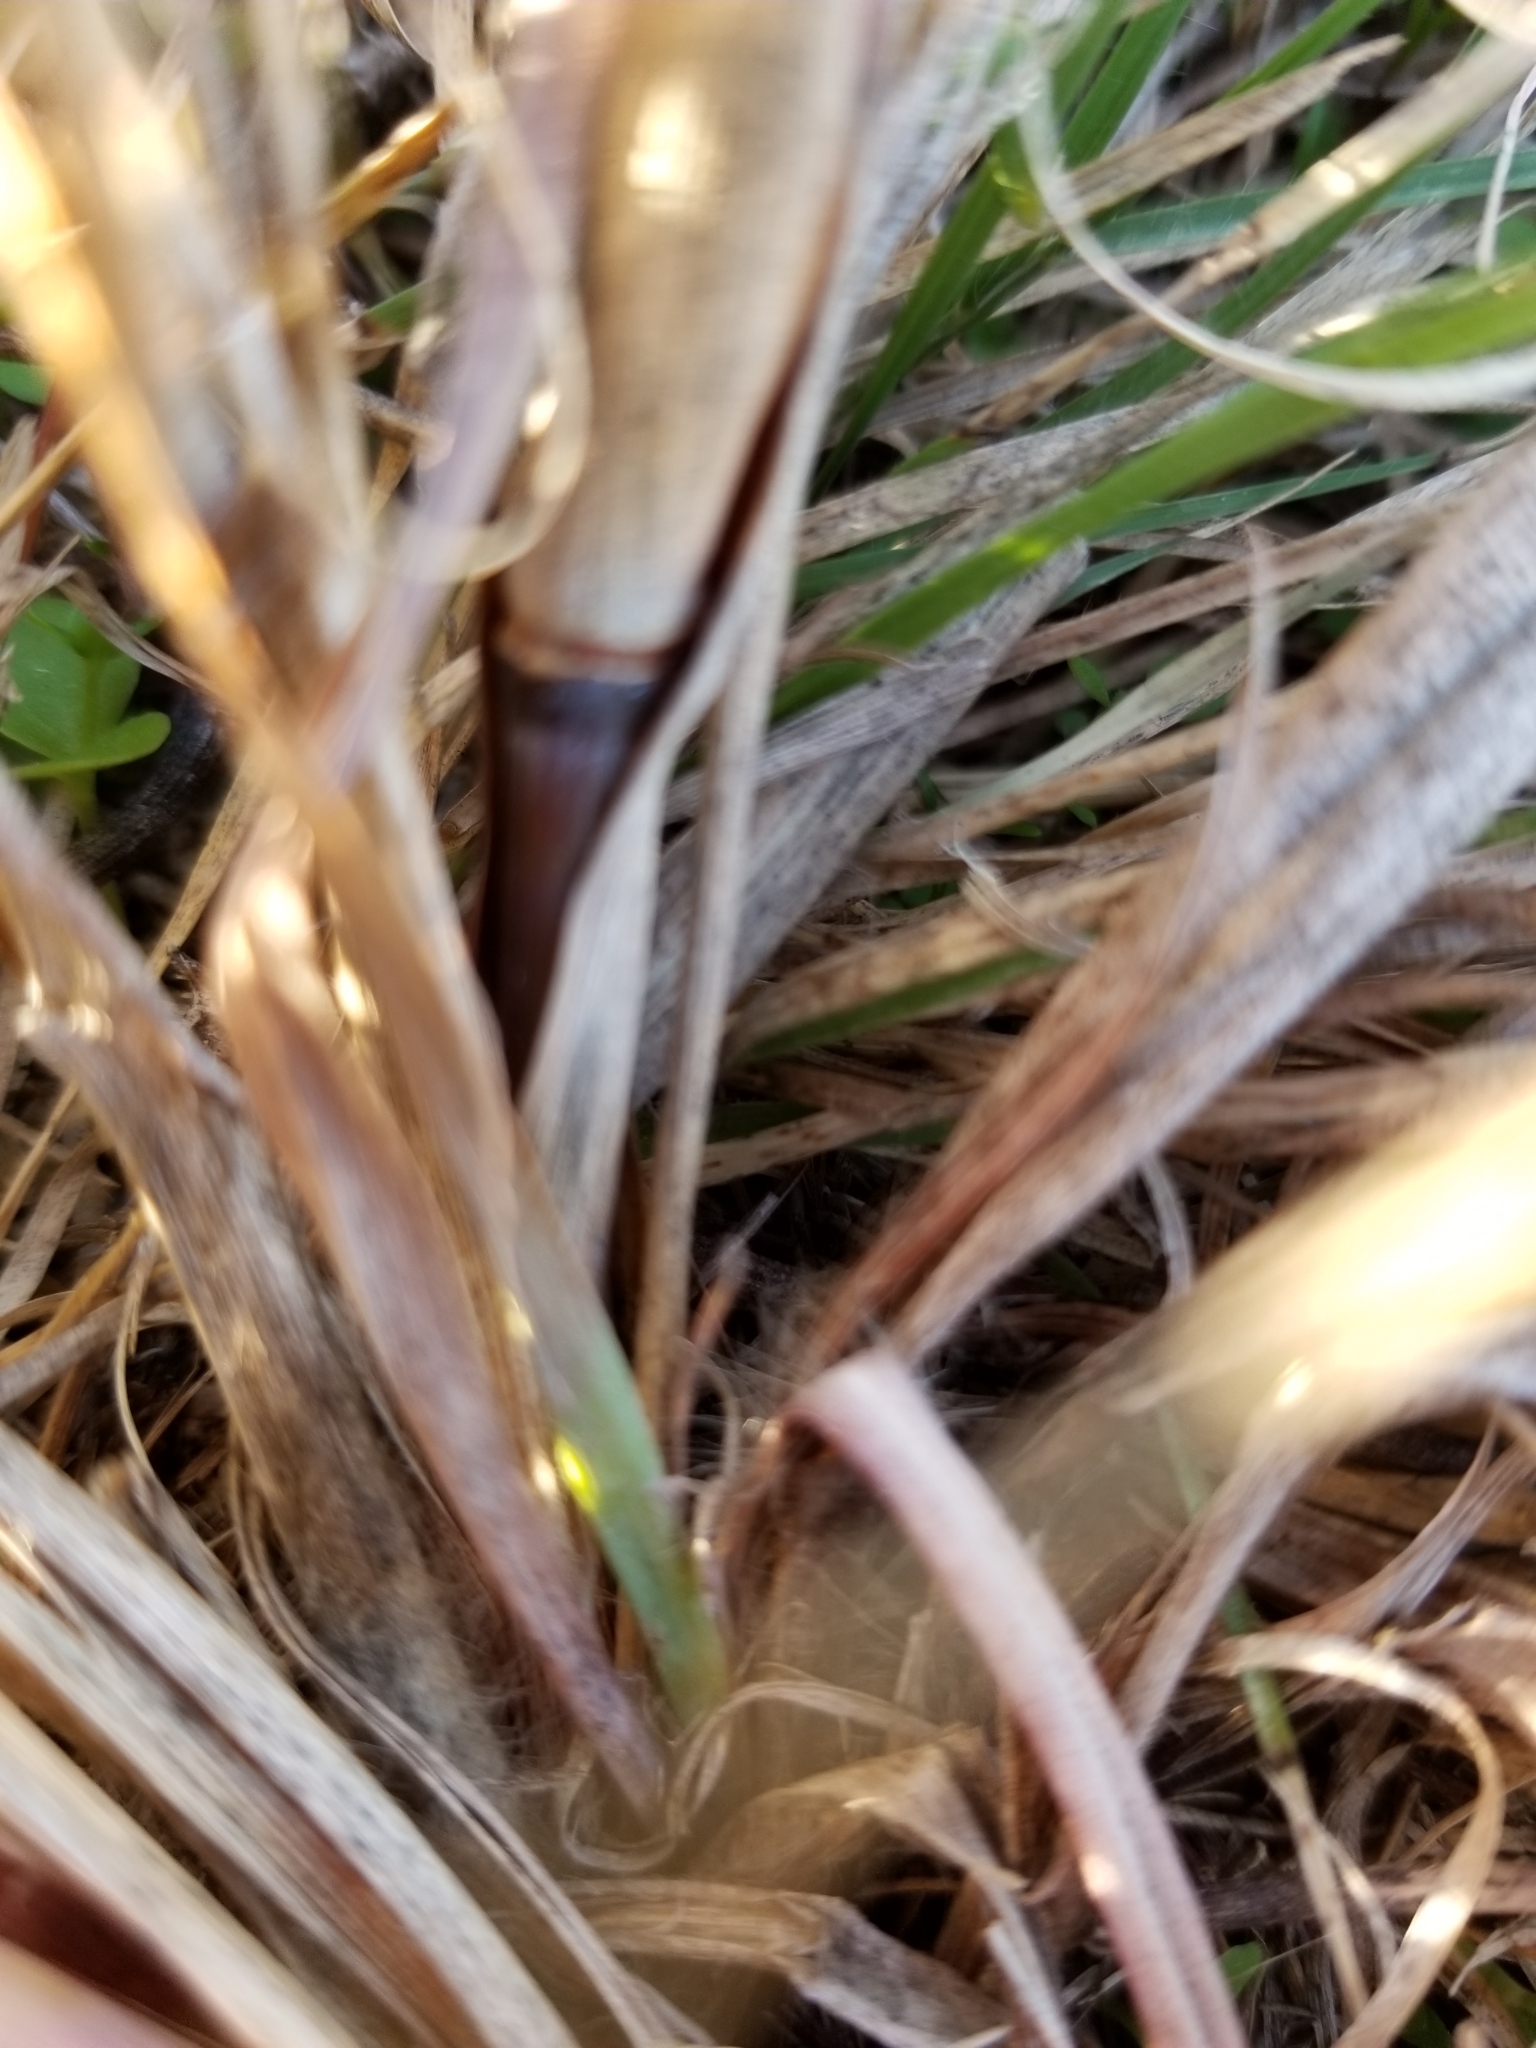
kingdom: Plantae
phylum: Tracheophyta
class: Liliopsida
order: Poales
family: Poaceae
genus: Andropogon
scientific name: Andropogon gerardi
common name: Big bluestem
